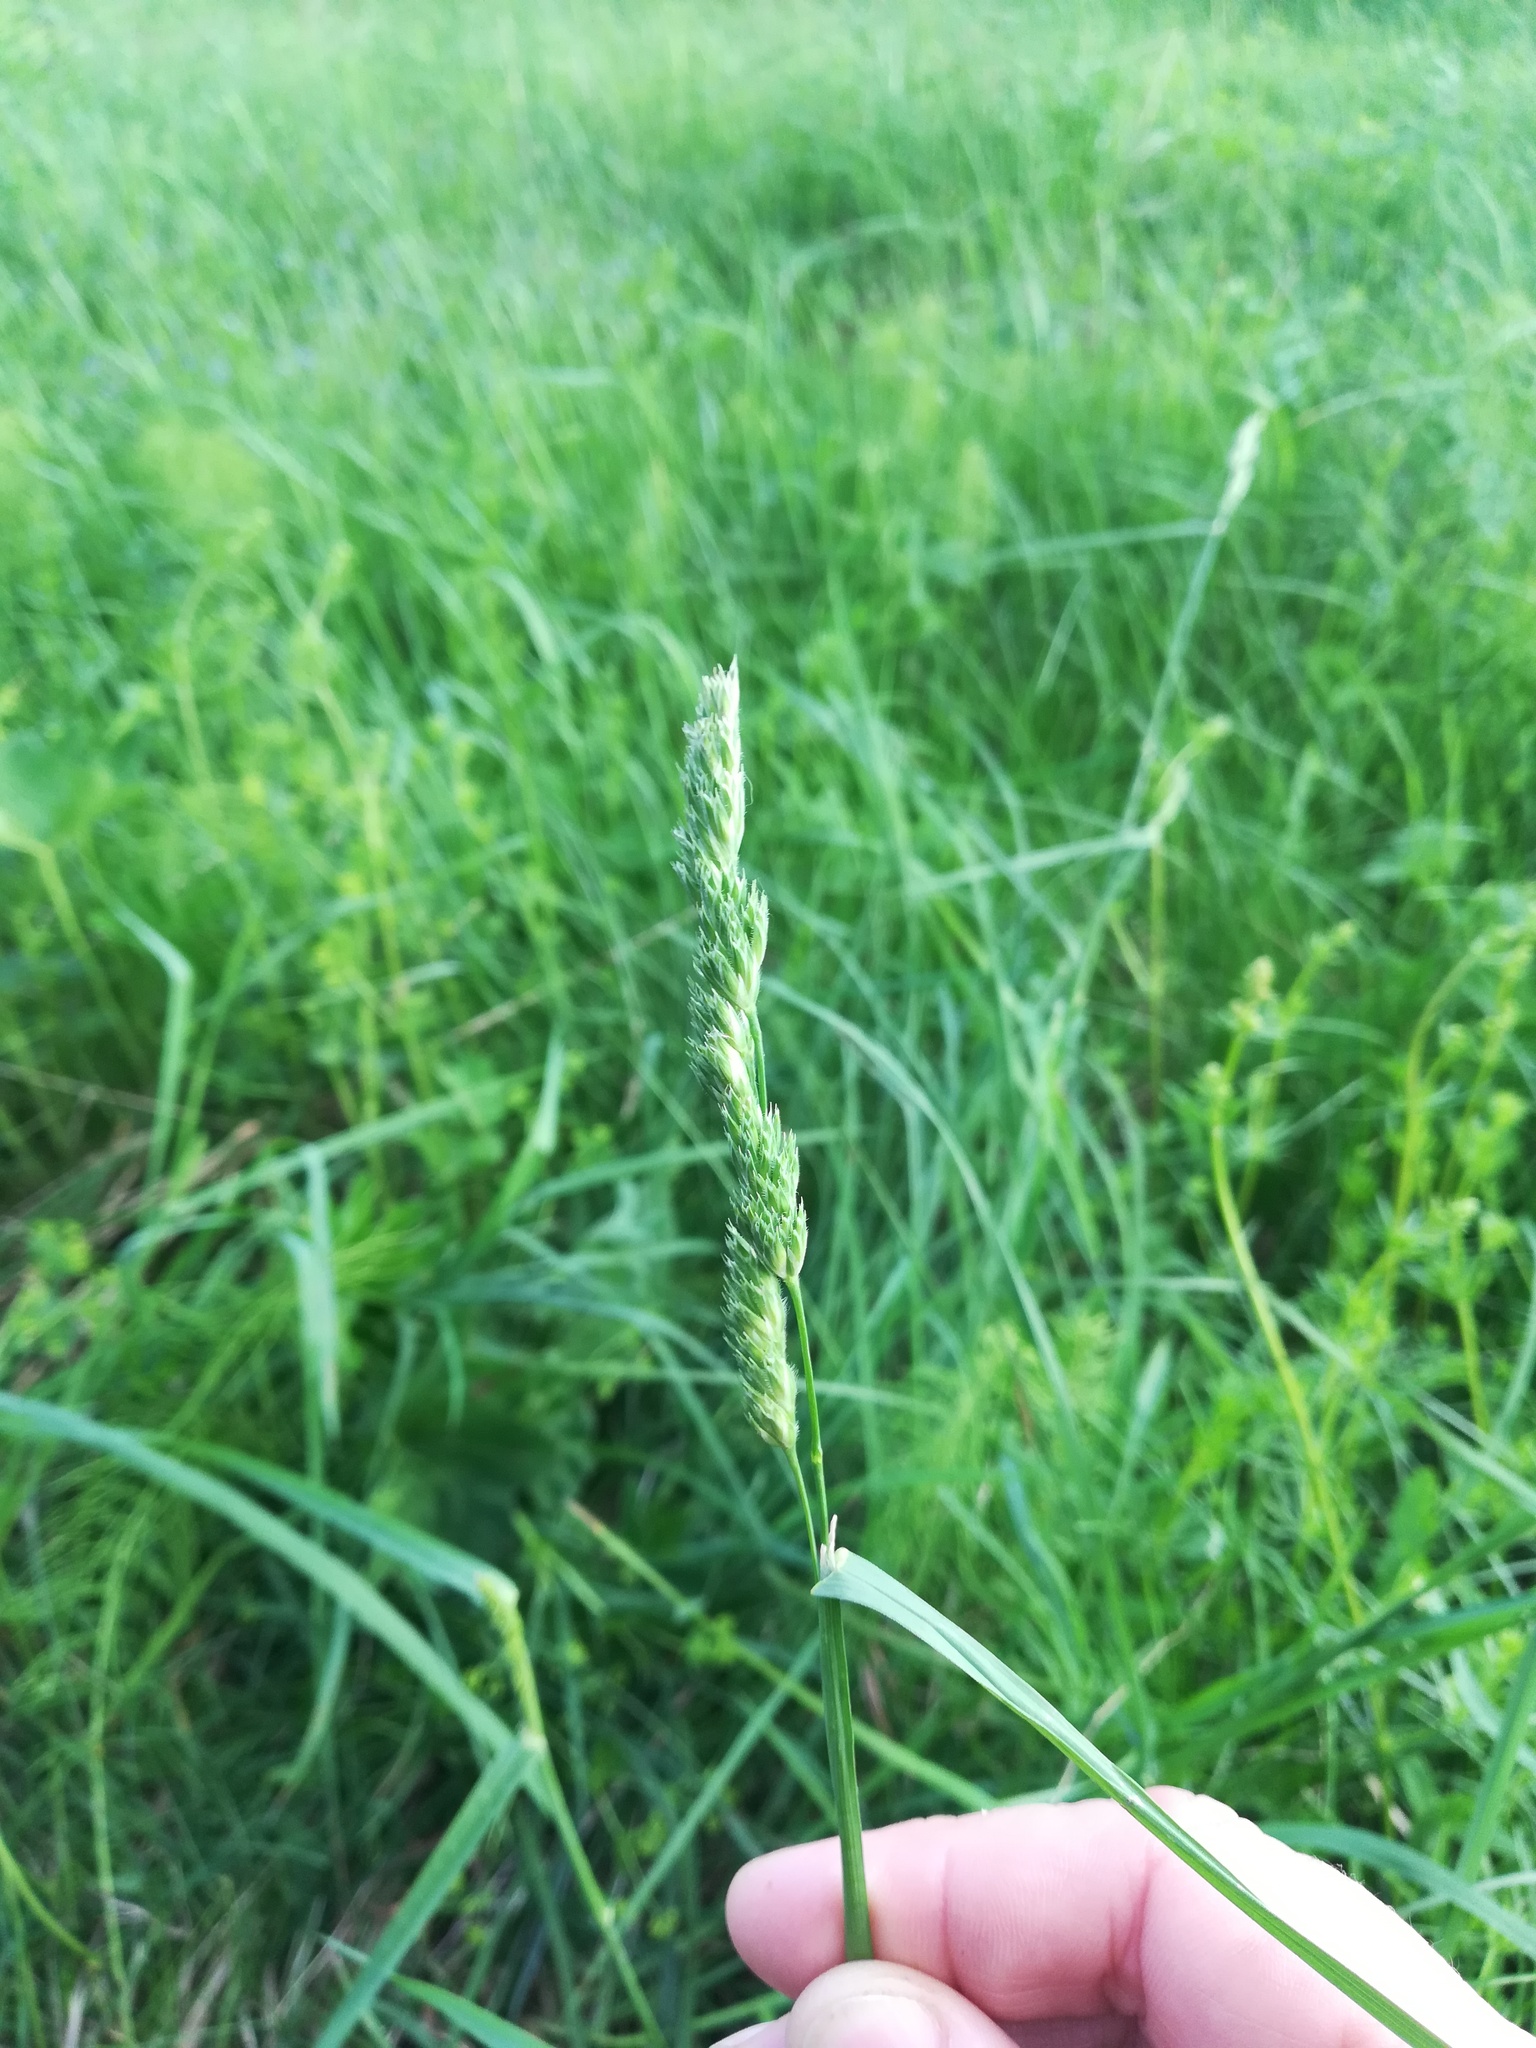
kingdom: Plantae
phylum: Tracheophyta
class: Liliopsida
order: Poales
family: Poaceae
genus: Dactylis
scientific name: Dactylis glomerata
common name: Orchardgrass
